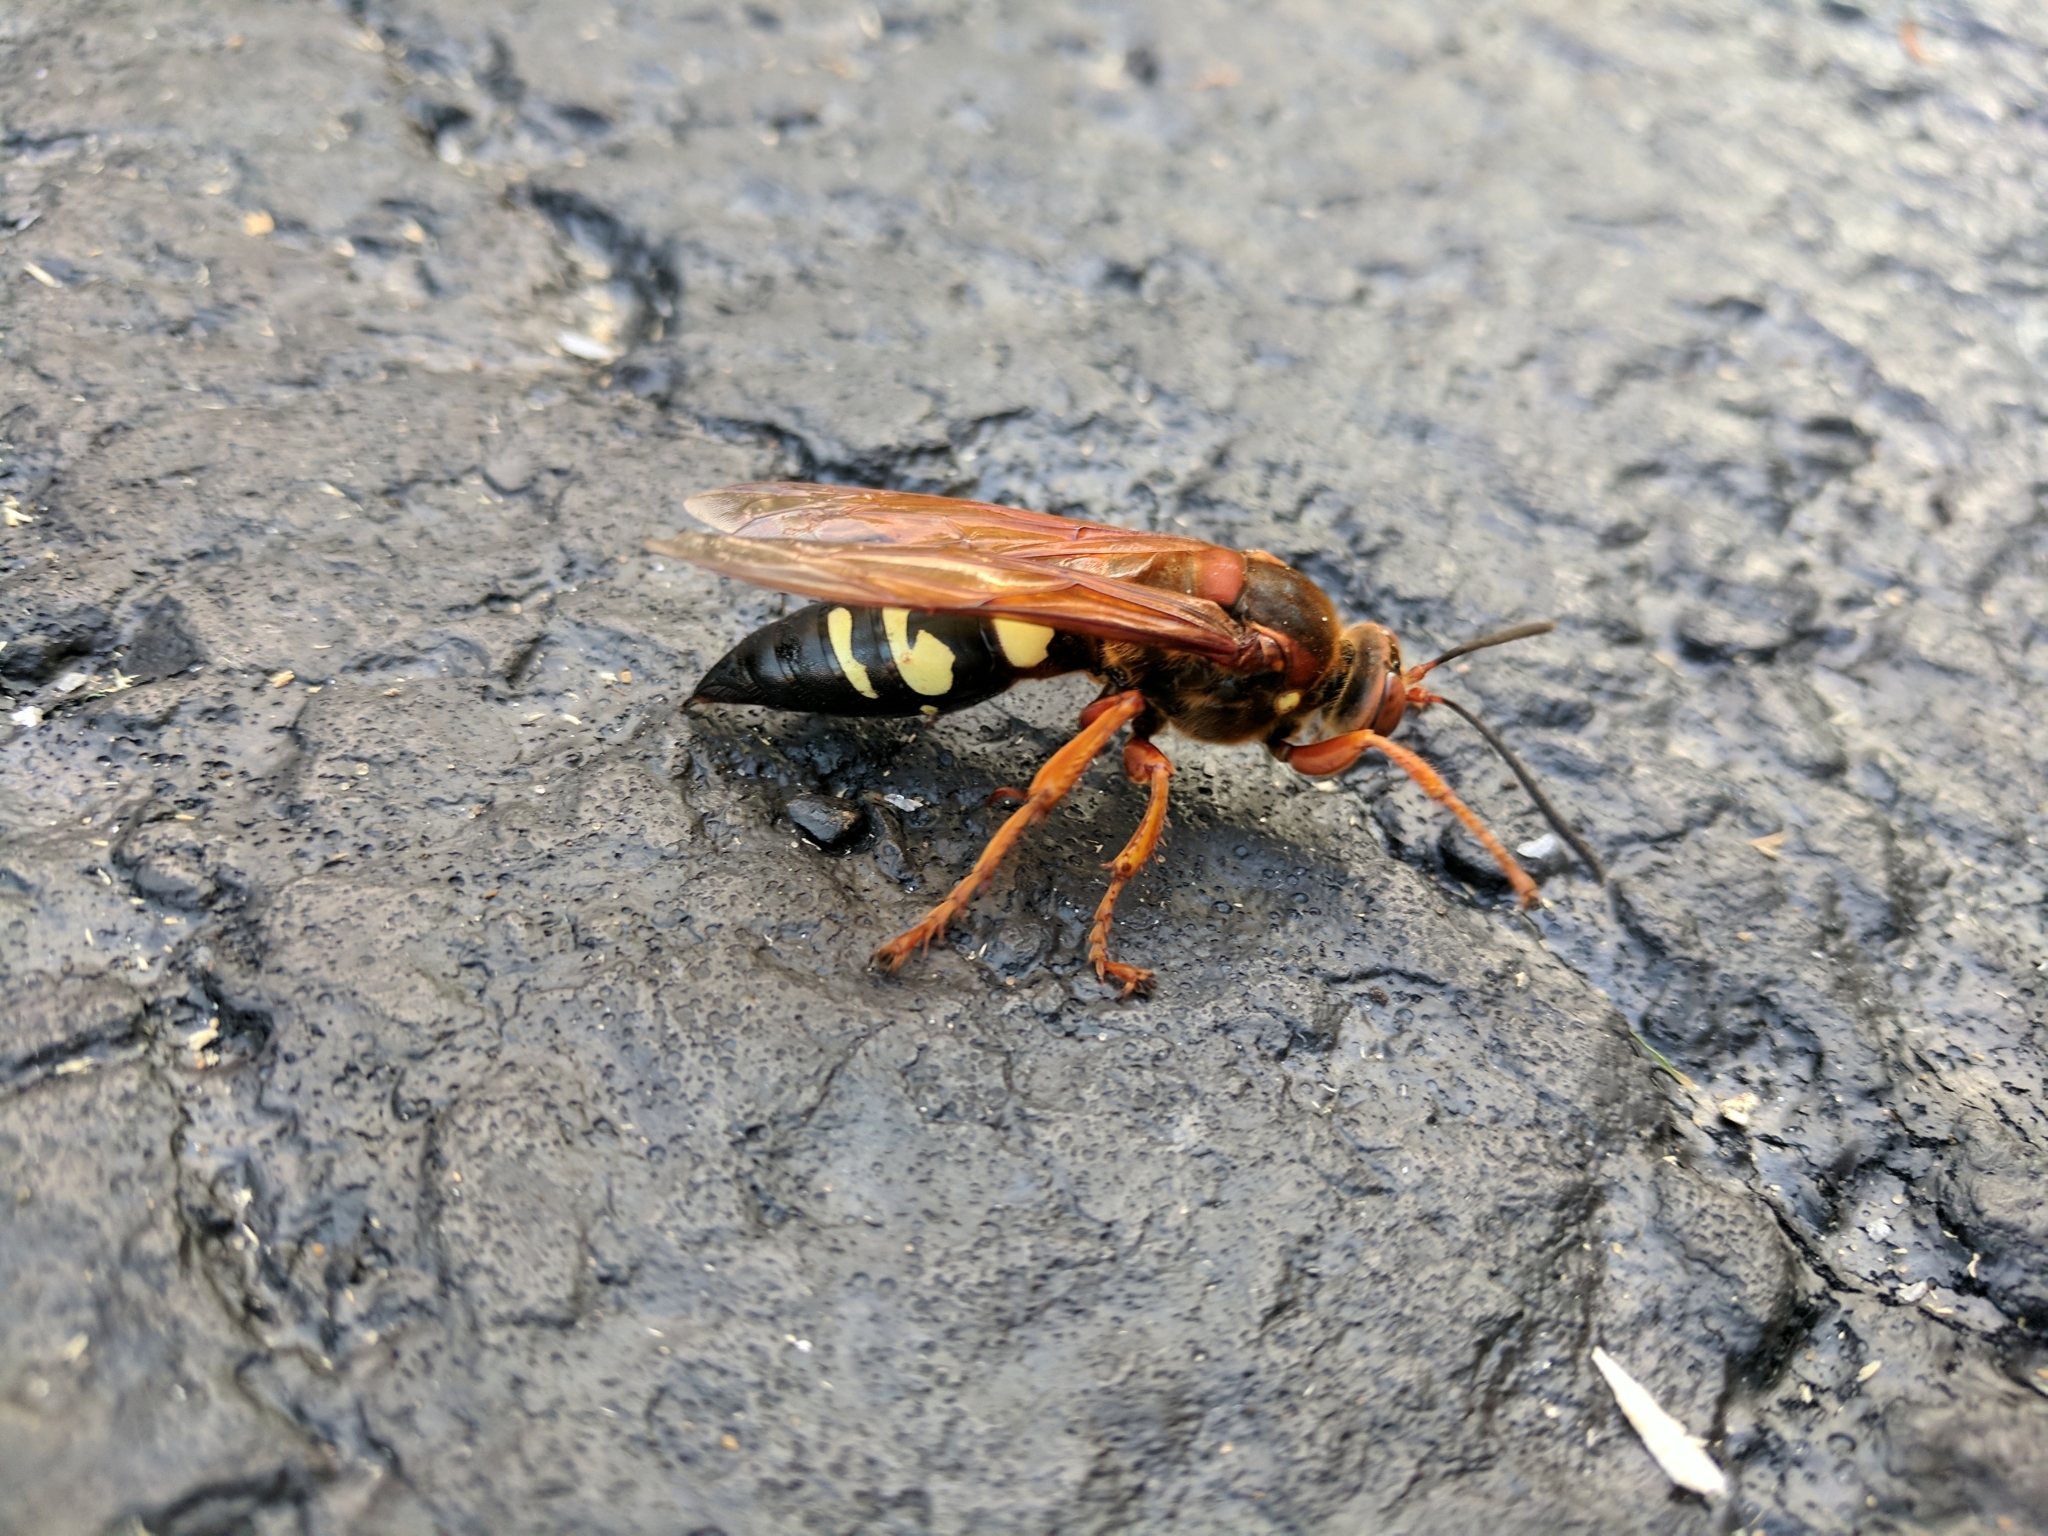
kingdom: Animalia
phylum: Arthropoda
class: Insecta
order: Hymenoptera
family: Crabronidae
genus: Sphecius
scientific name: Sphecius speciosus
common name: Cicada killer
